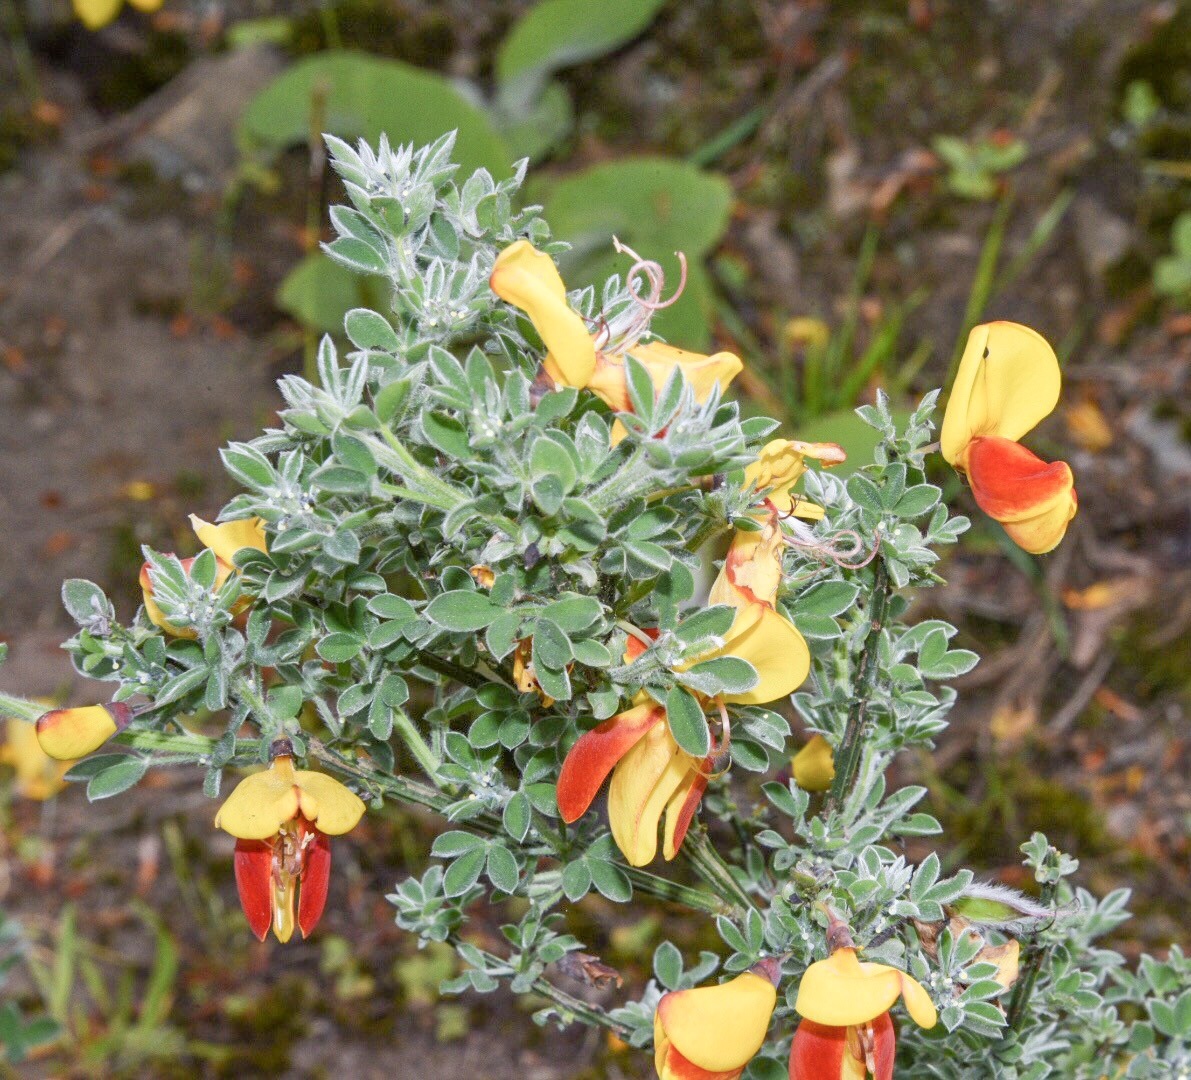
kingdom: Plantae
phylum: Tracheophyta
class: Magnoliopsida
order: Fabales
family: Fabaceae
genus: Cytisus
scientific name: Cytisus scoparius
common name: Scotch broom
